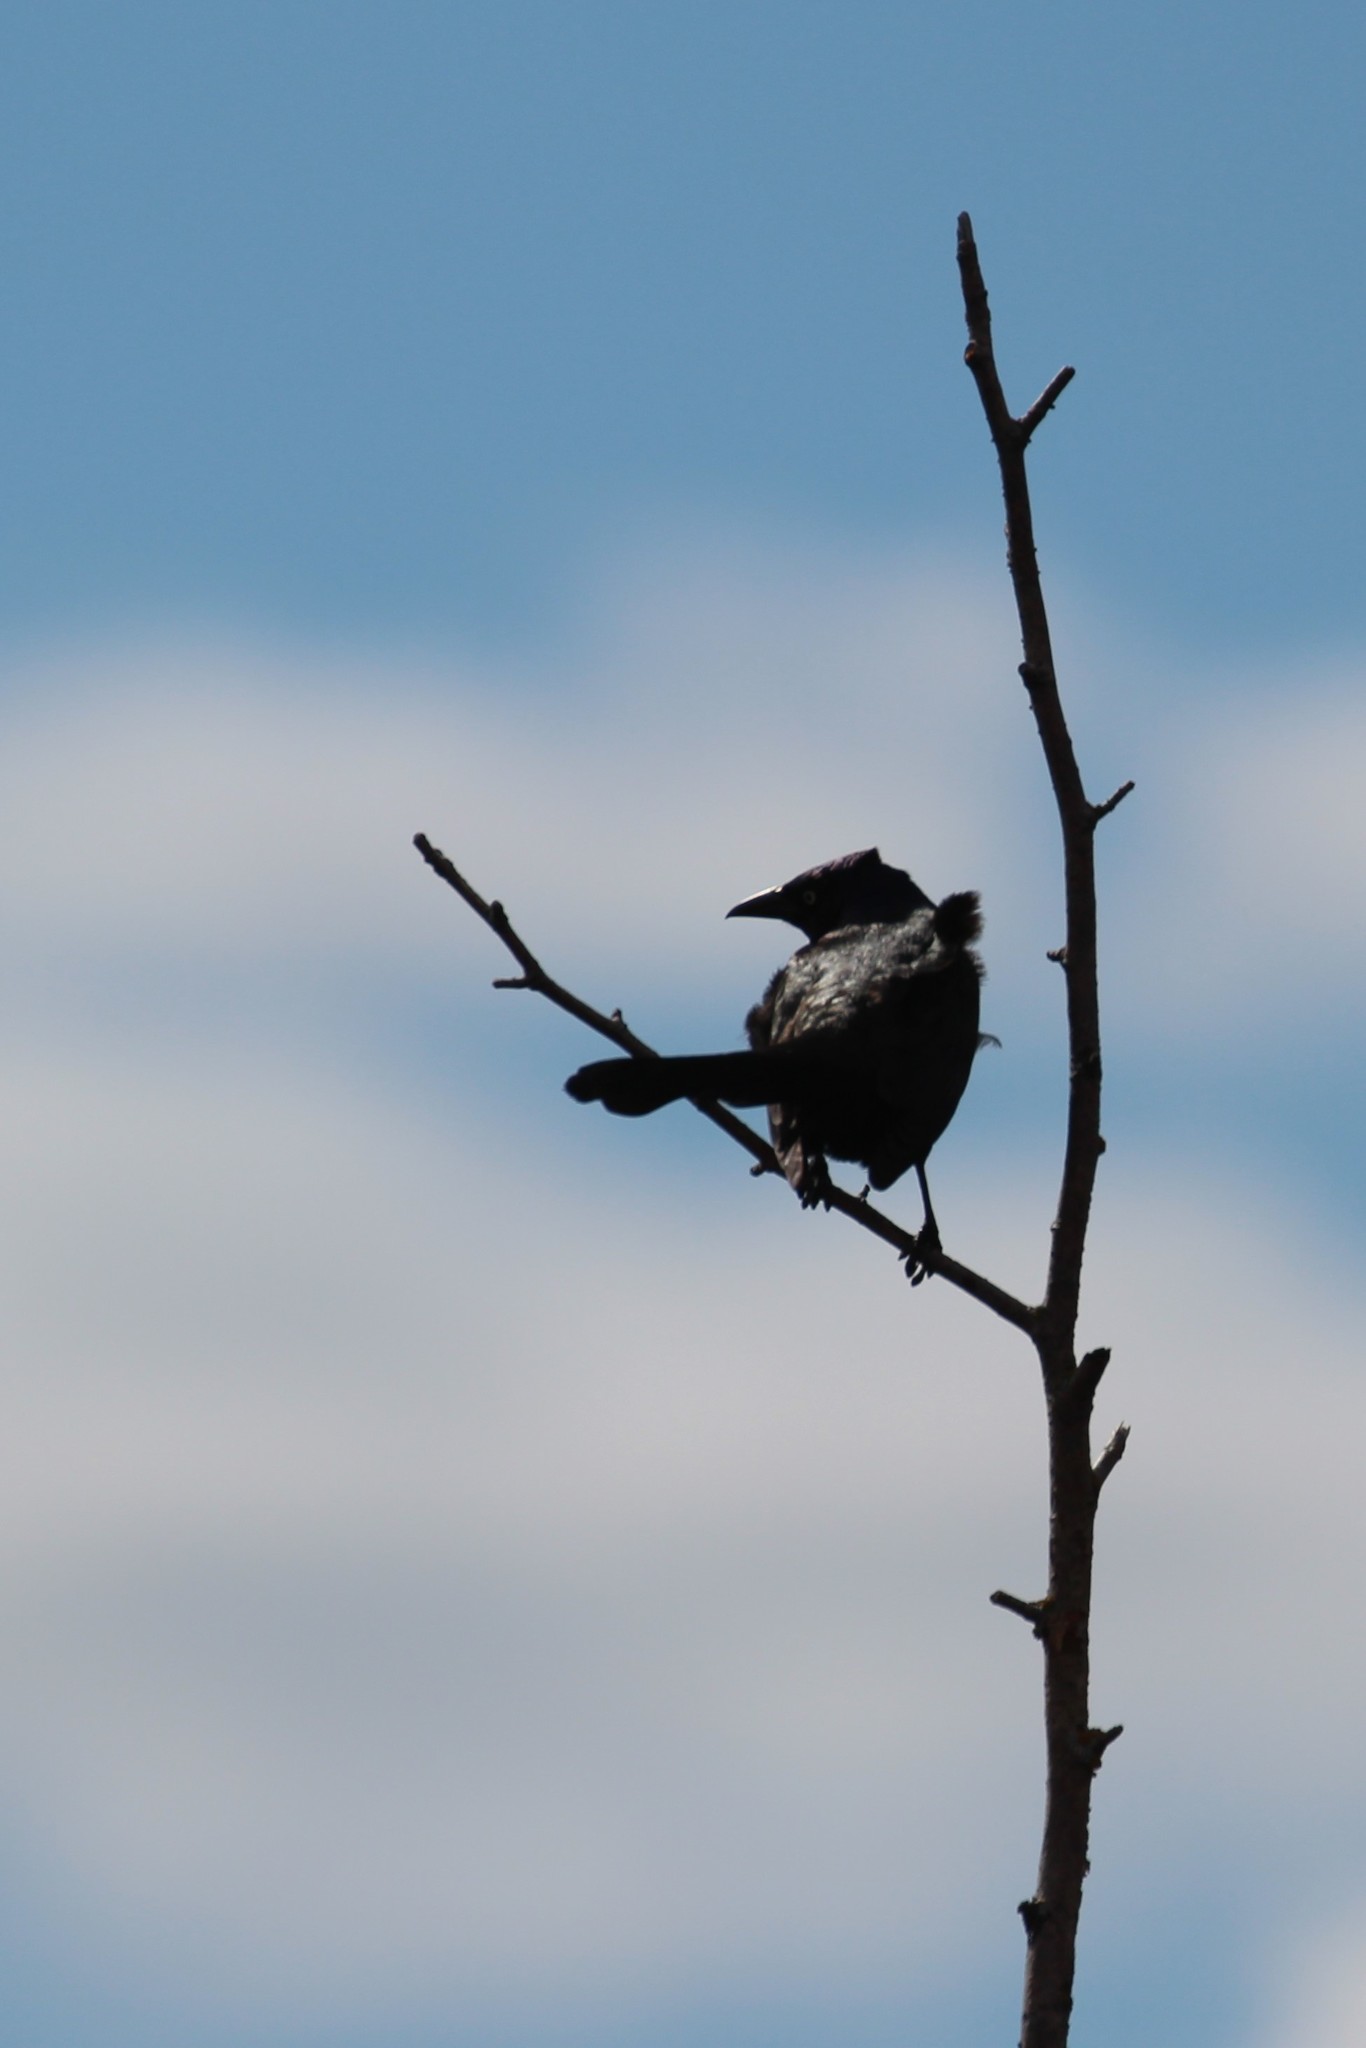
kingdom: Animalia
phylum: Chordata
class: Aves
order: Passeriformes
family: Icteridae
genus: Quiscalus
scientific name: Quiscalus quiscula
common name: Common grackle
